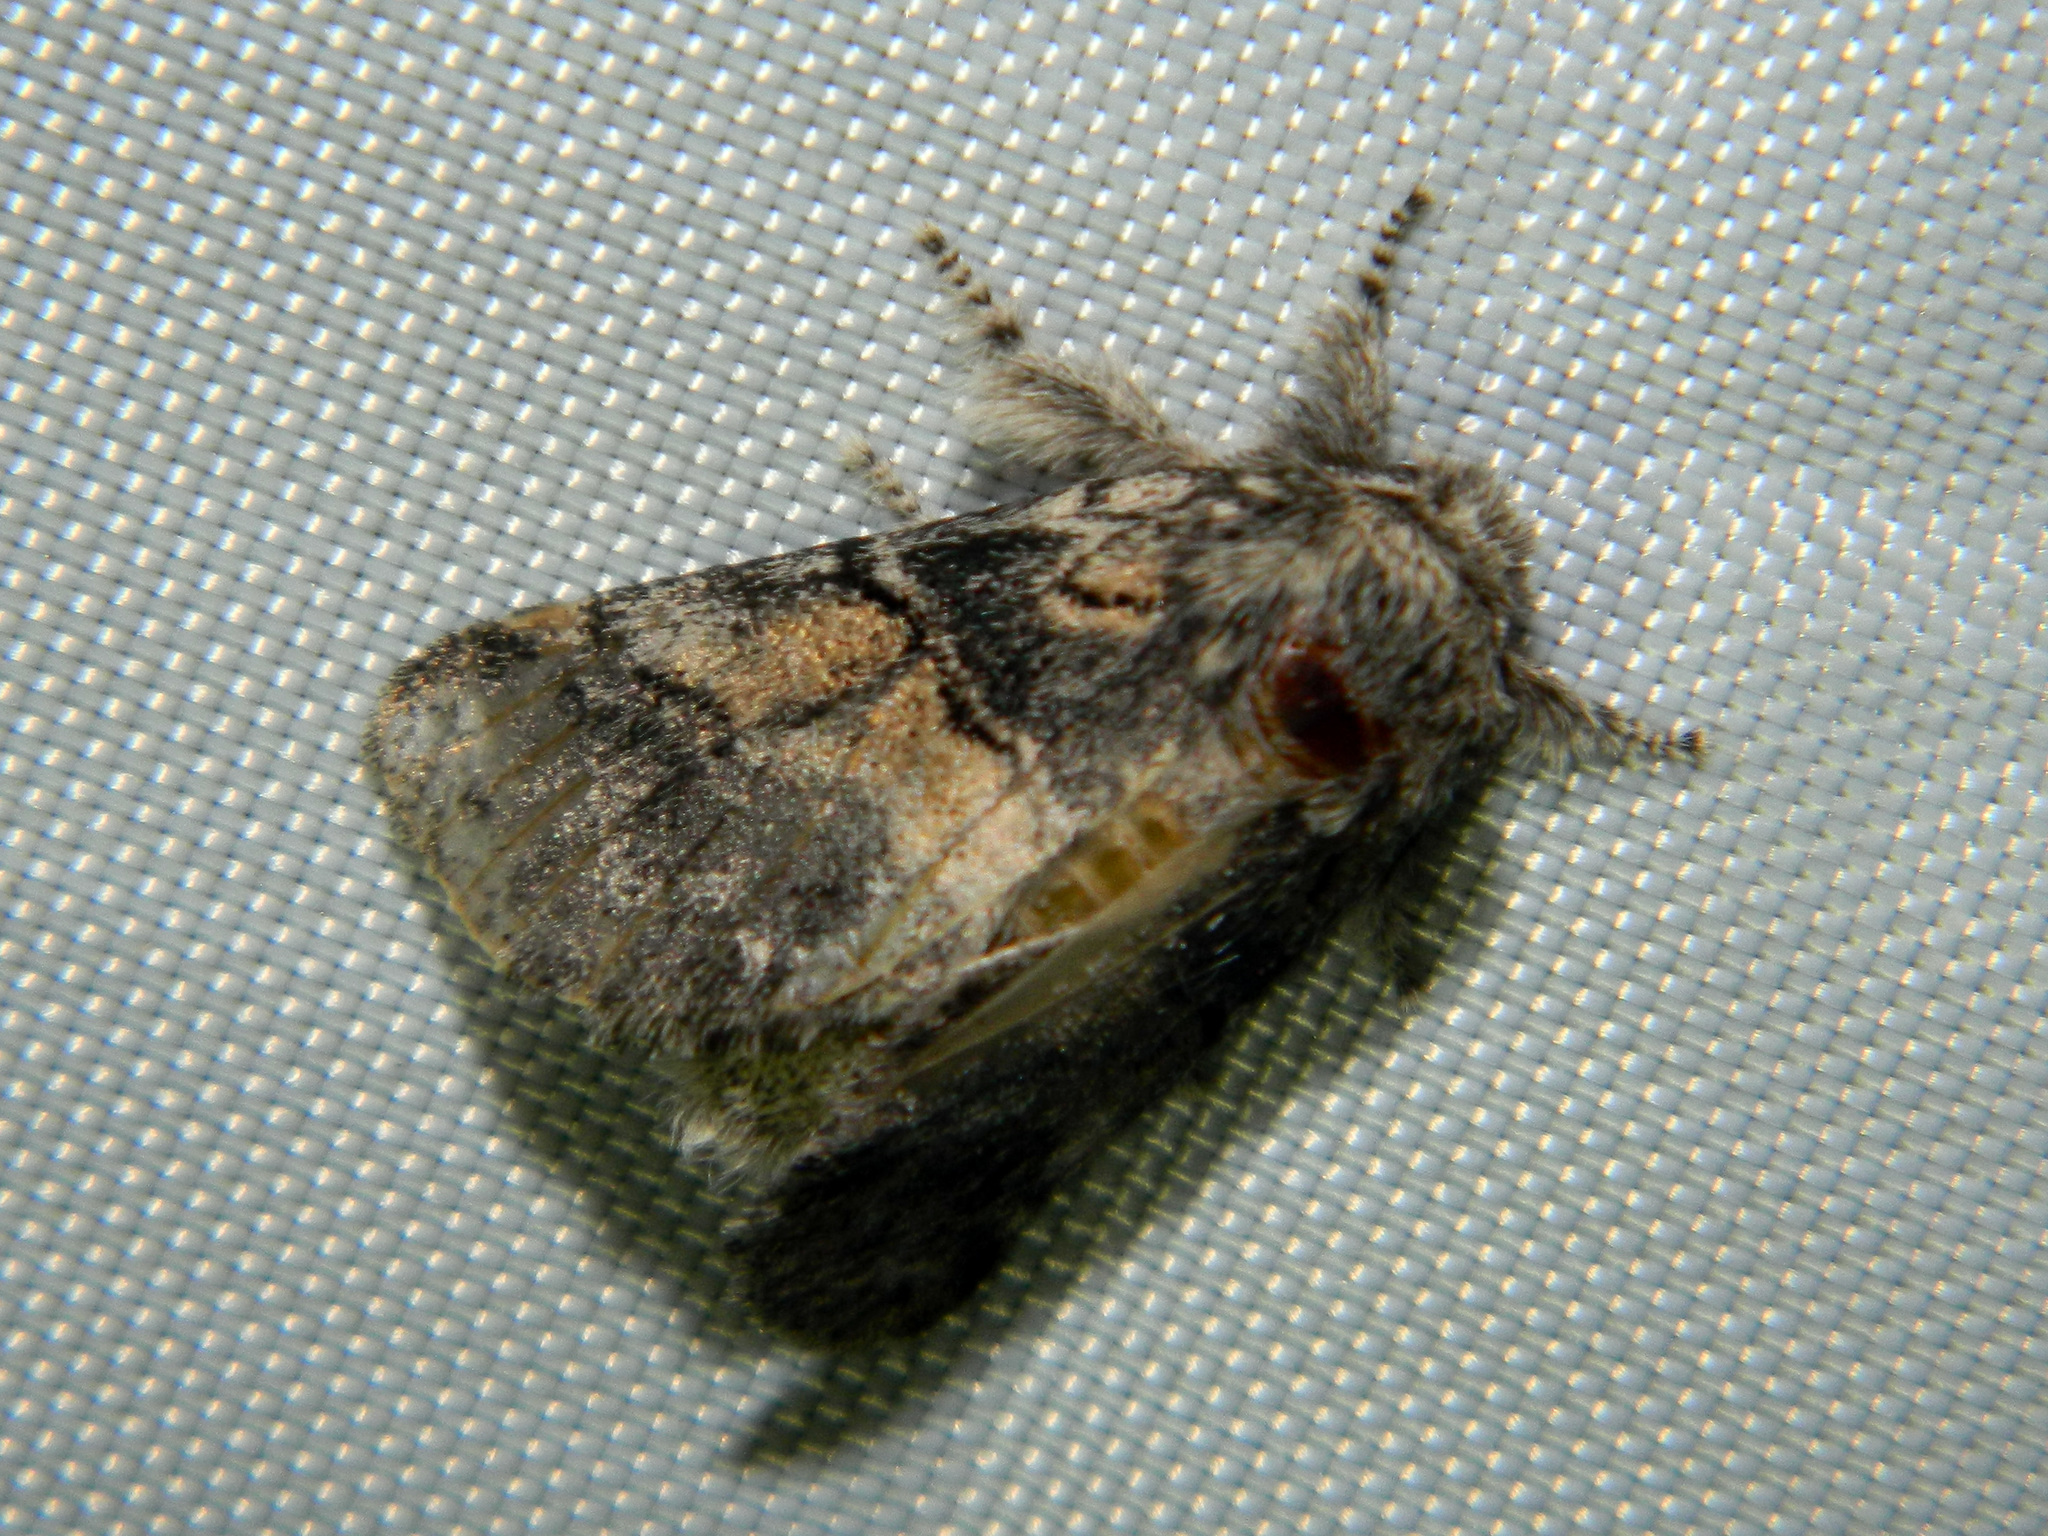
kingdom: Animalia
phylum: Arthropoda
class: Insecta
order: Lepidoptera
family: Notodontidae
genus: Gluphisia
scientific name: Gluphisia septentrionis
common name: Common gluphisia
